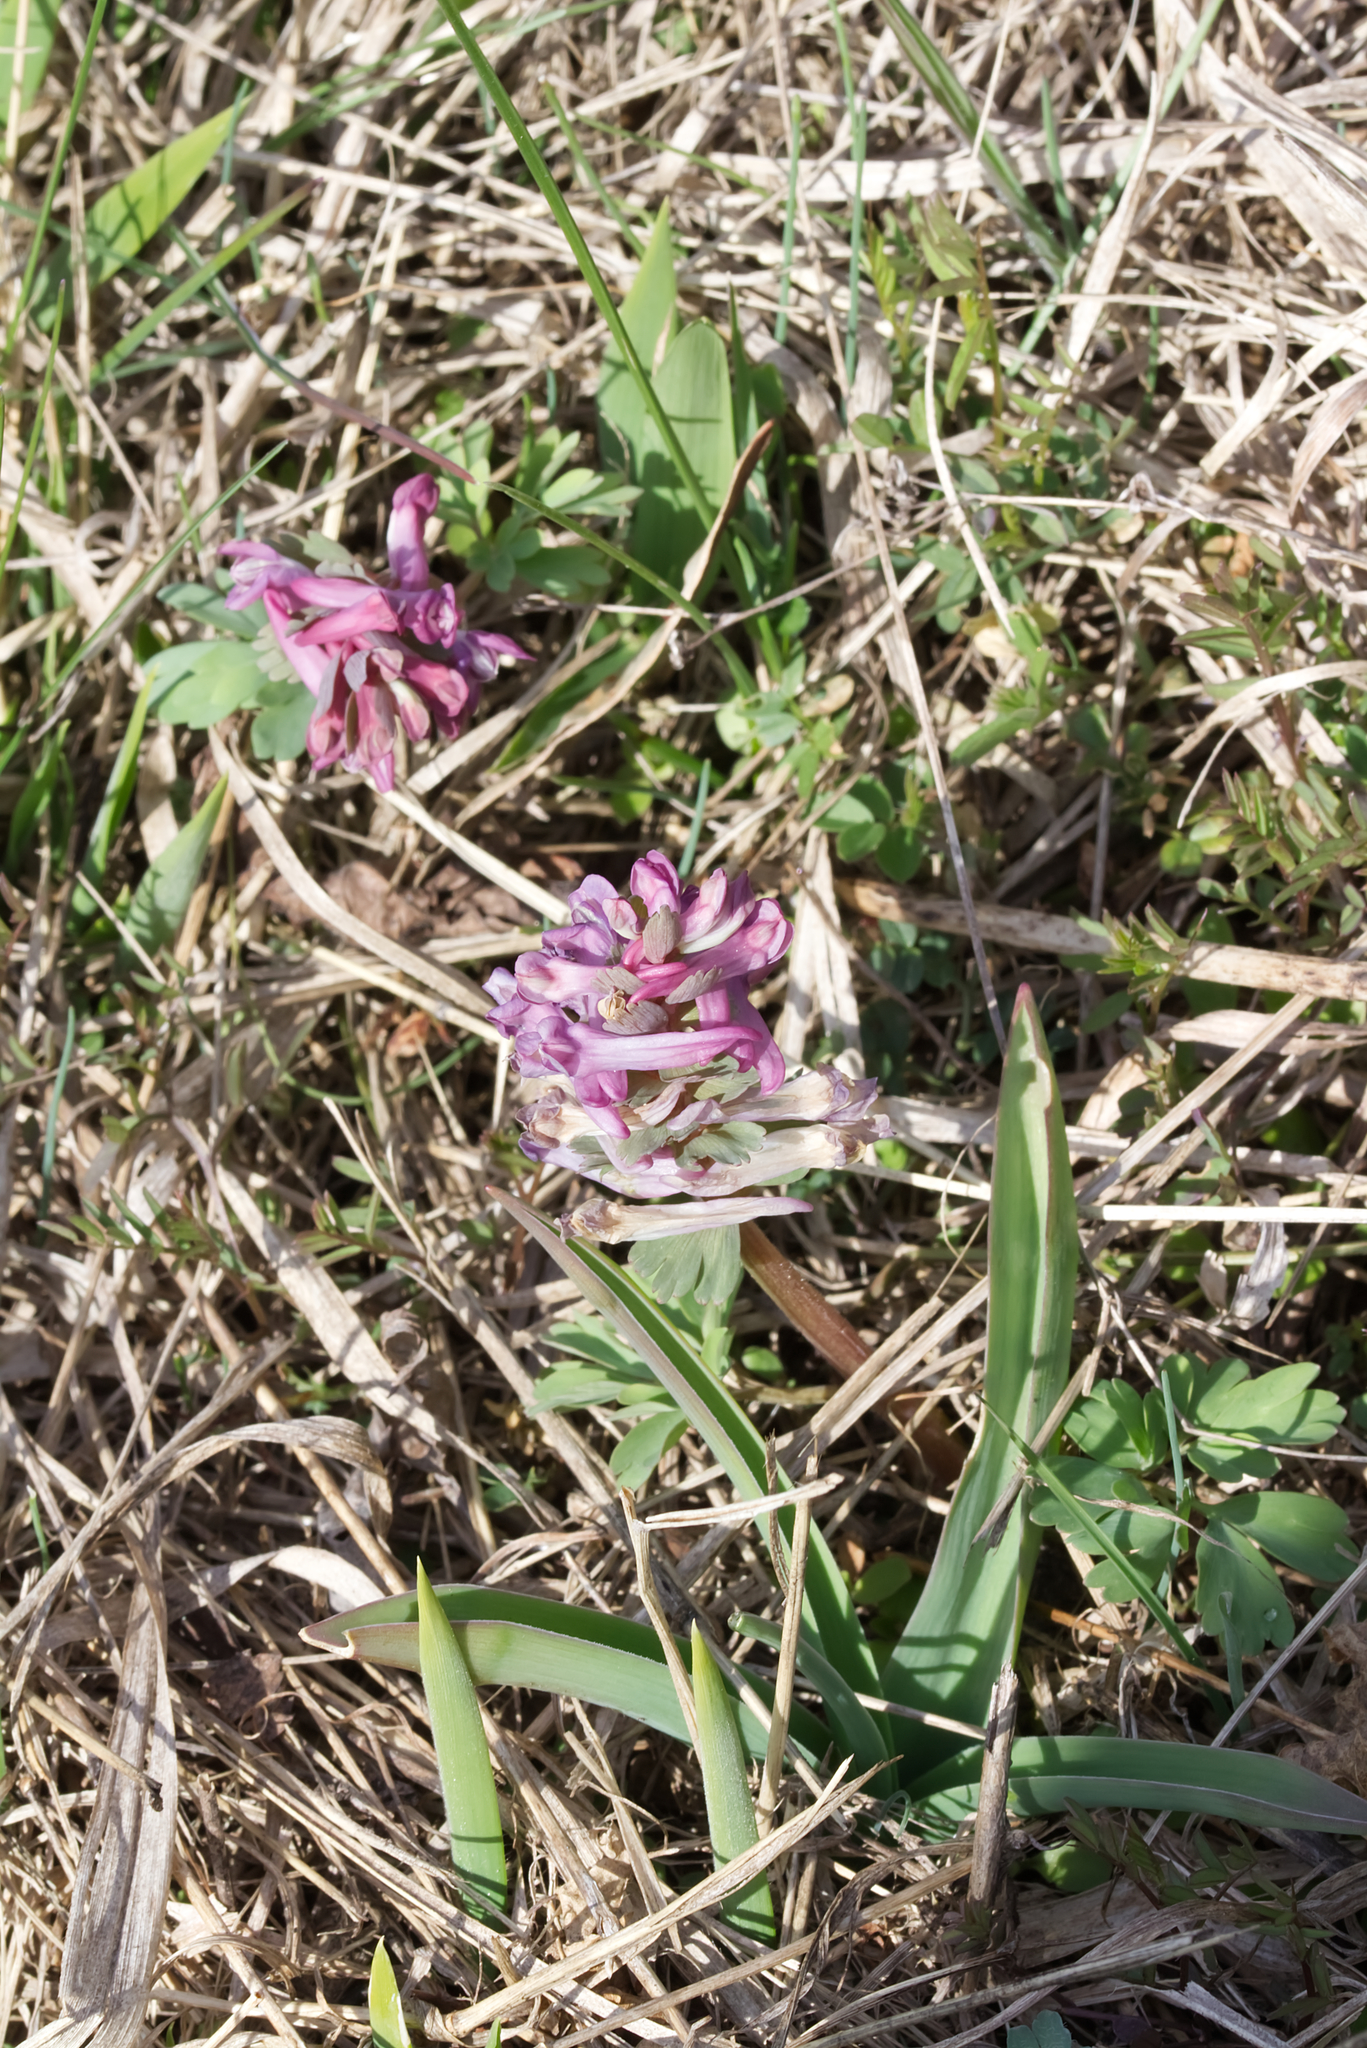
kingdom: Plantae
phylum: Tracheophyta
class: Magnoliopsida
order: Ranunculales
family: Papaveraceae
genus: Corydalis
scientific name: Corydalis solida
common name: Bird-in-a-bush
